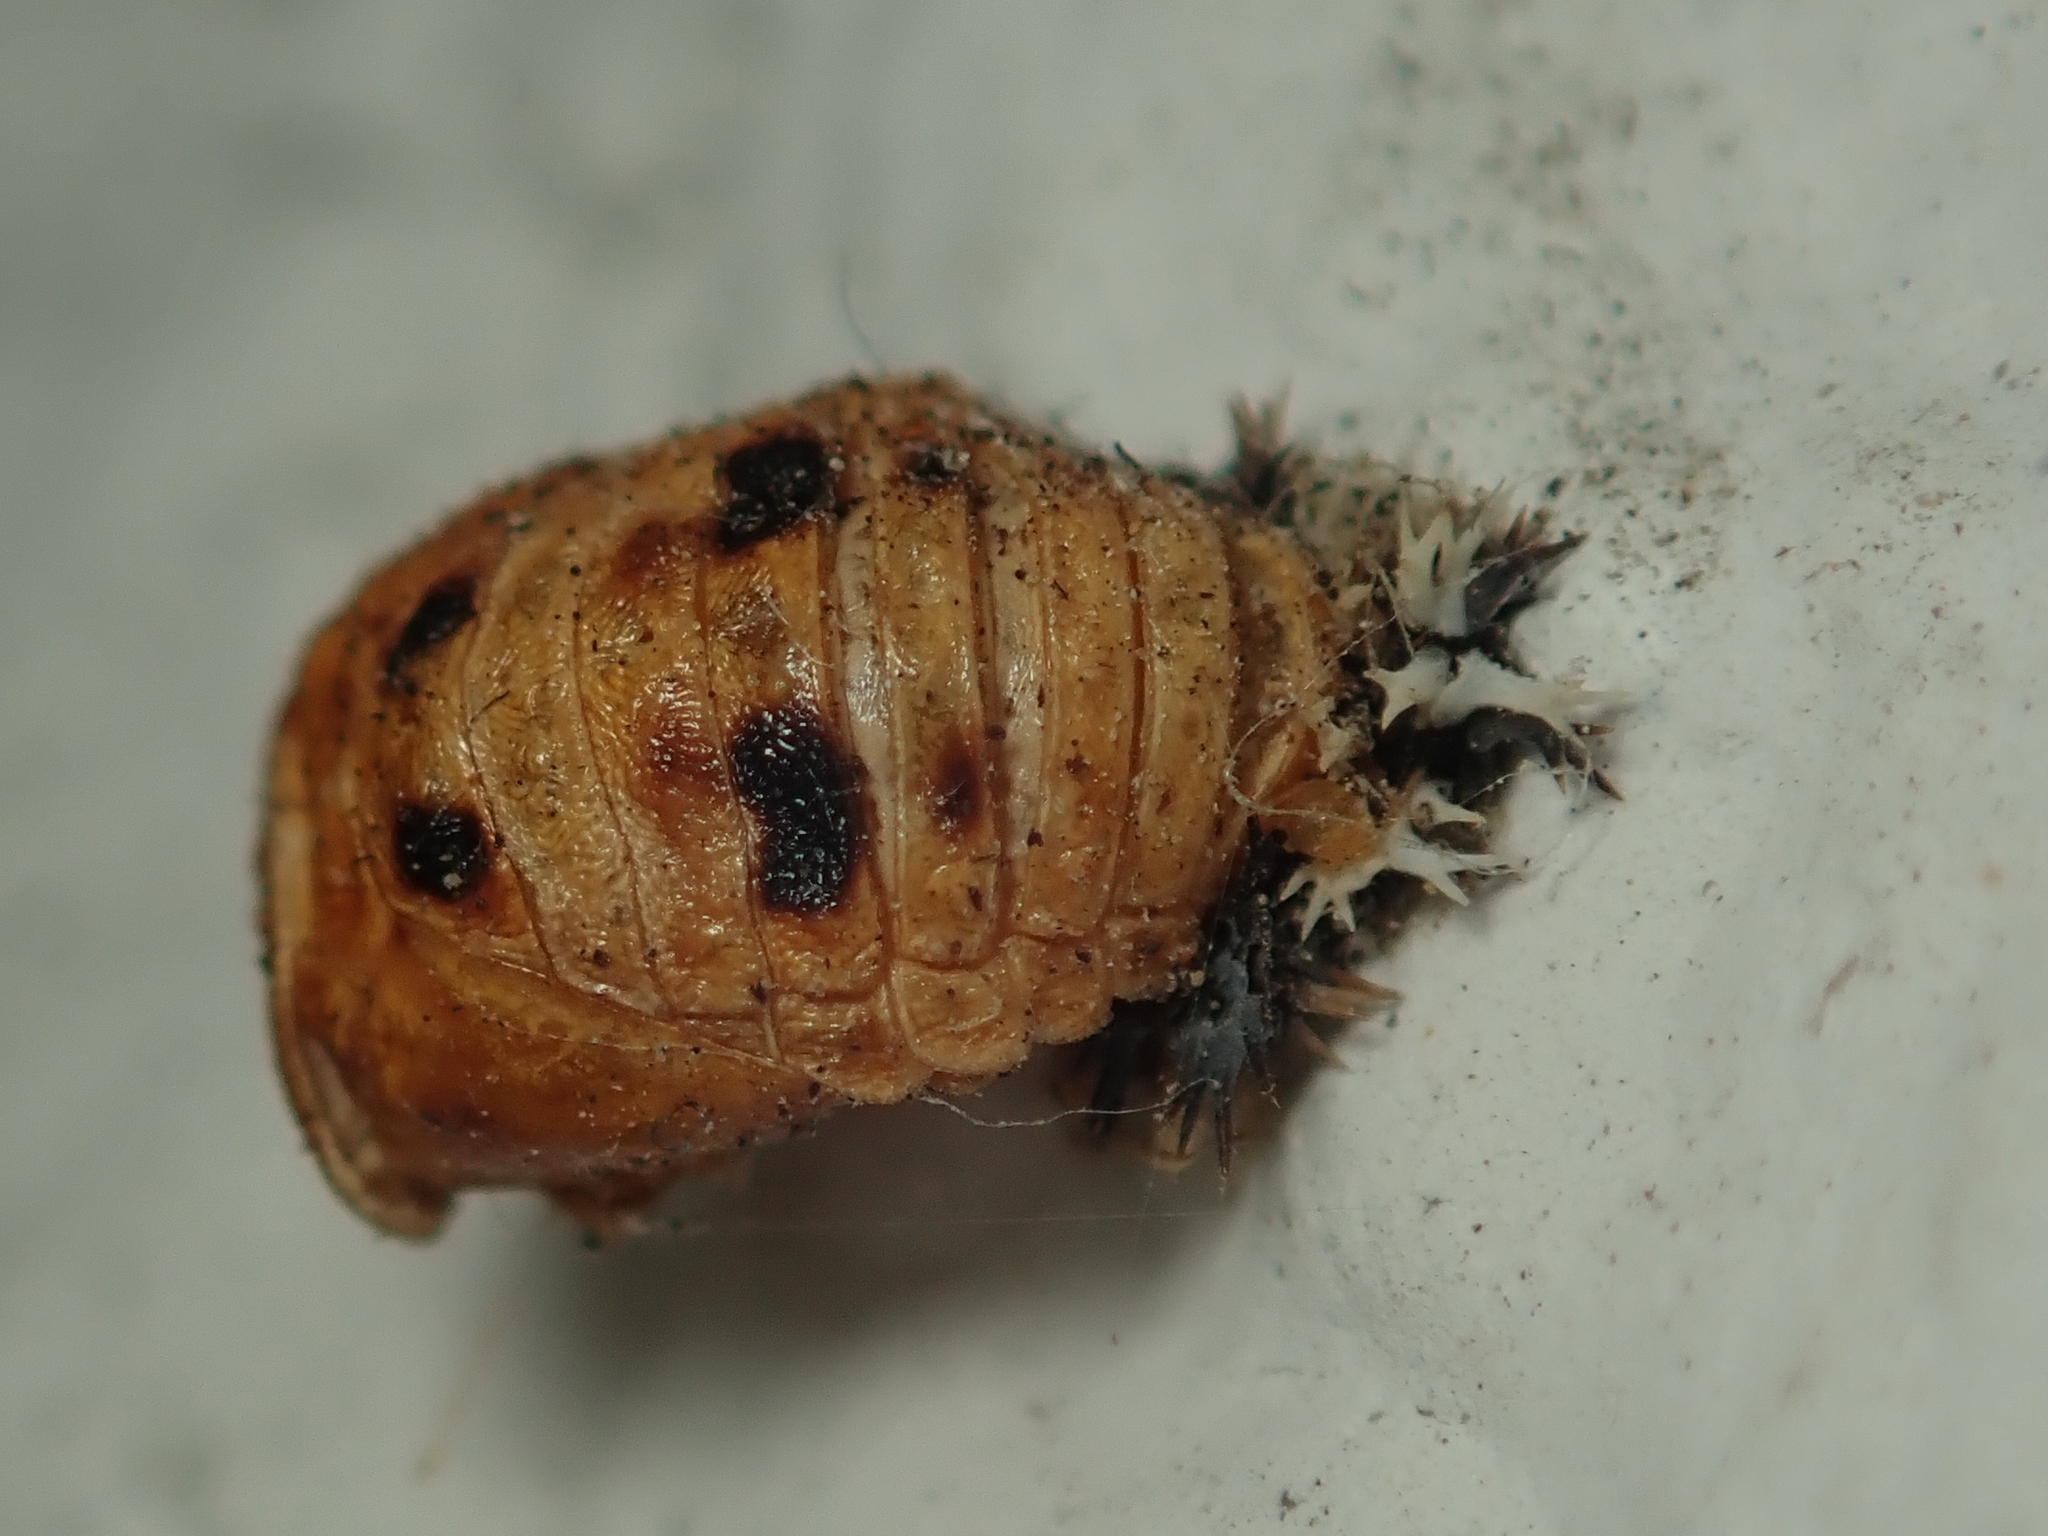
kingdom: Animalia
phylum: Arthropoda
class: Insecta
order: Coleoptera
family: Coccinellidae
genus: Harmonia
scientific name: Harmonia axyridis
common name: Harlequin ladybird
